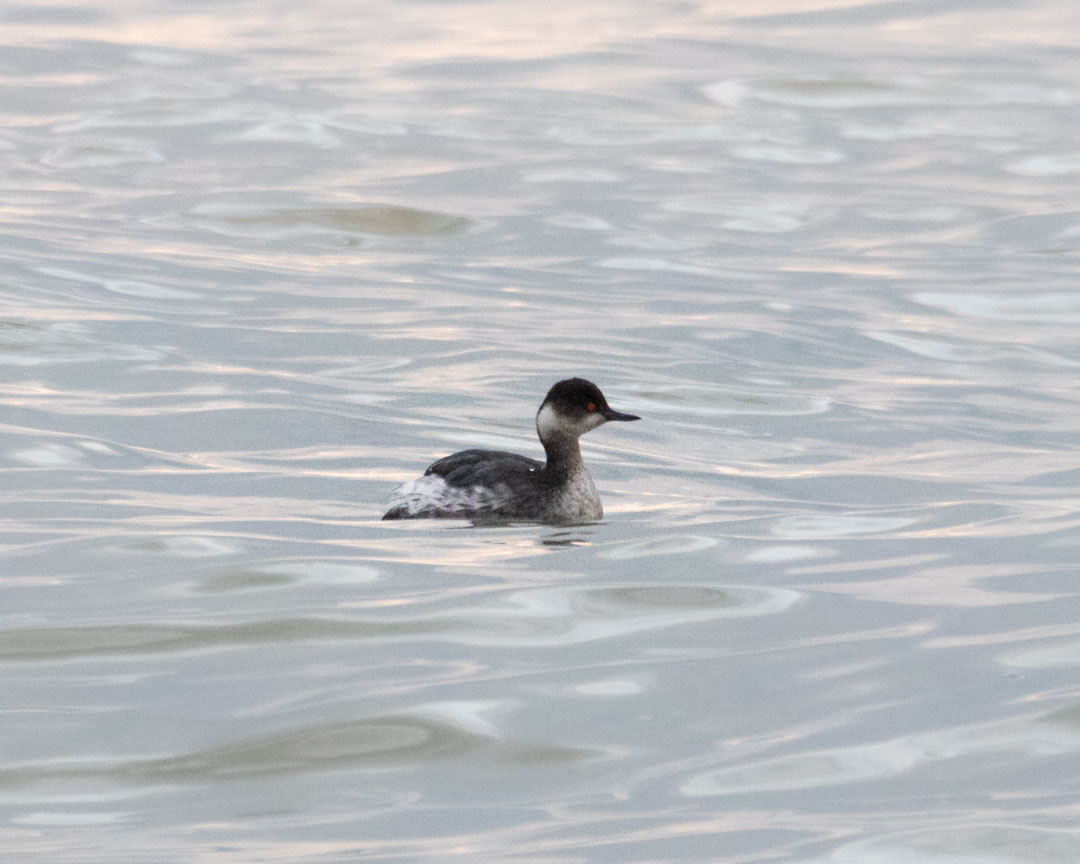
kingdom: Animalia
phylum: Chordata
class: Aves
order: Podicipediformes
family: Podicipedidae
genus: Podiceps
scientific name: Podiceps nigricollis
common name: Black-necked grebe
